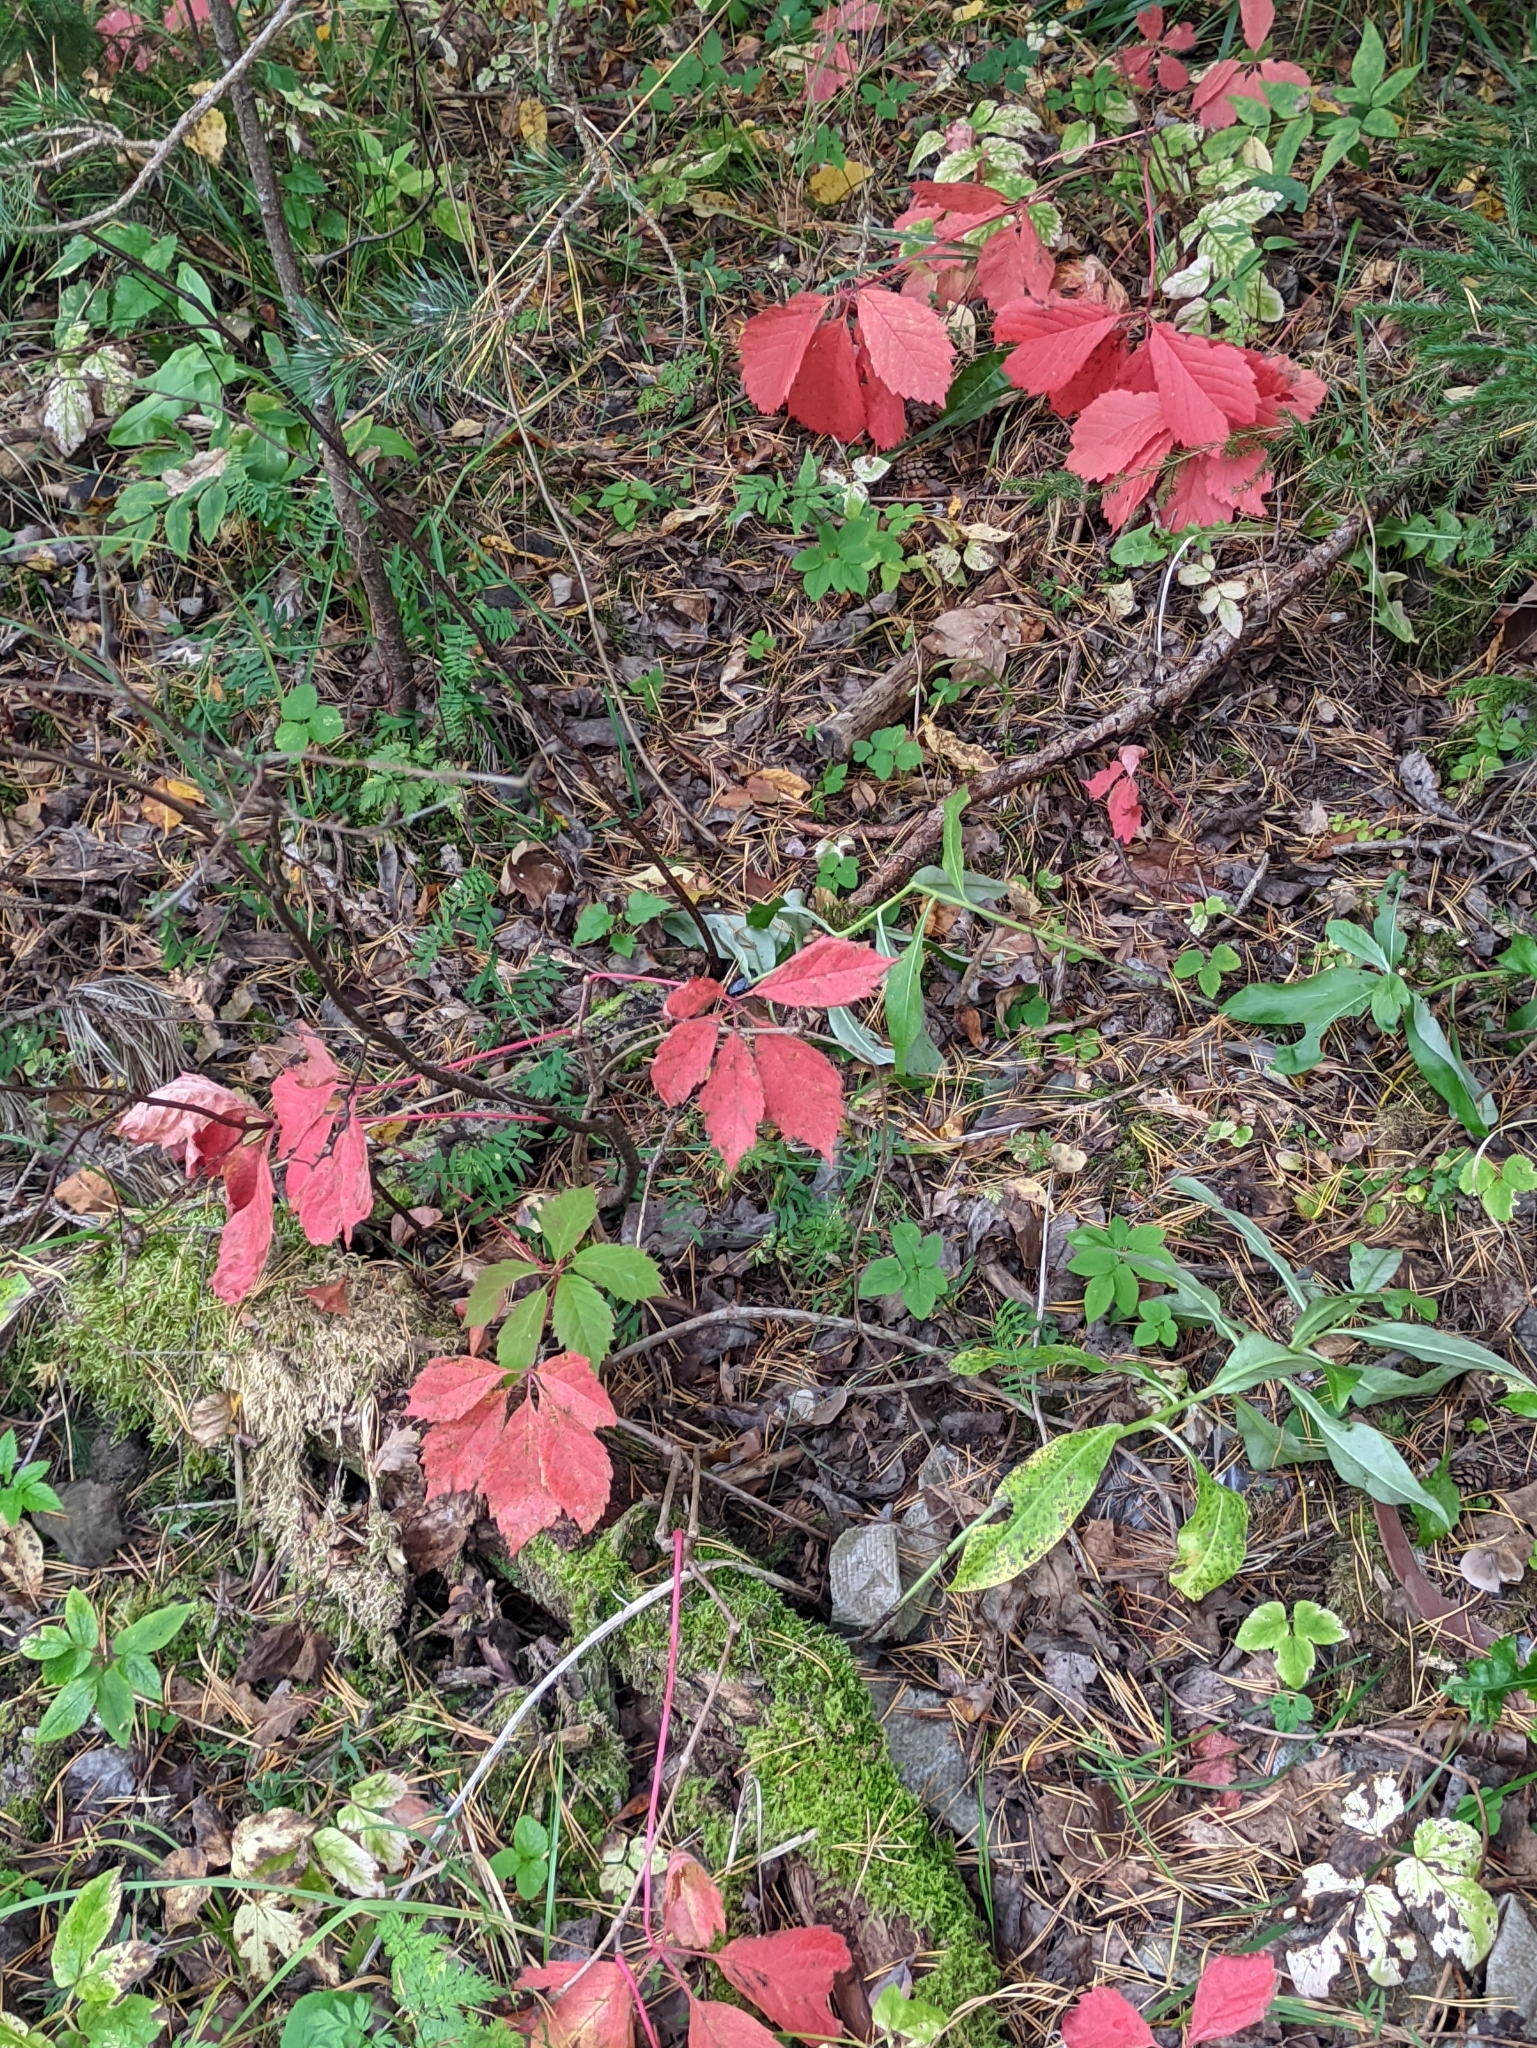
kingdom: Plantae
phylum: Tracheophyta
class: Magnoliopsida
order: Vitales
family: Vitaceae
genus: Parthenocissus
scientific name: Parthenocissus inserta
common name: False virginia-creeper
